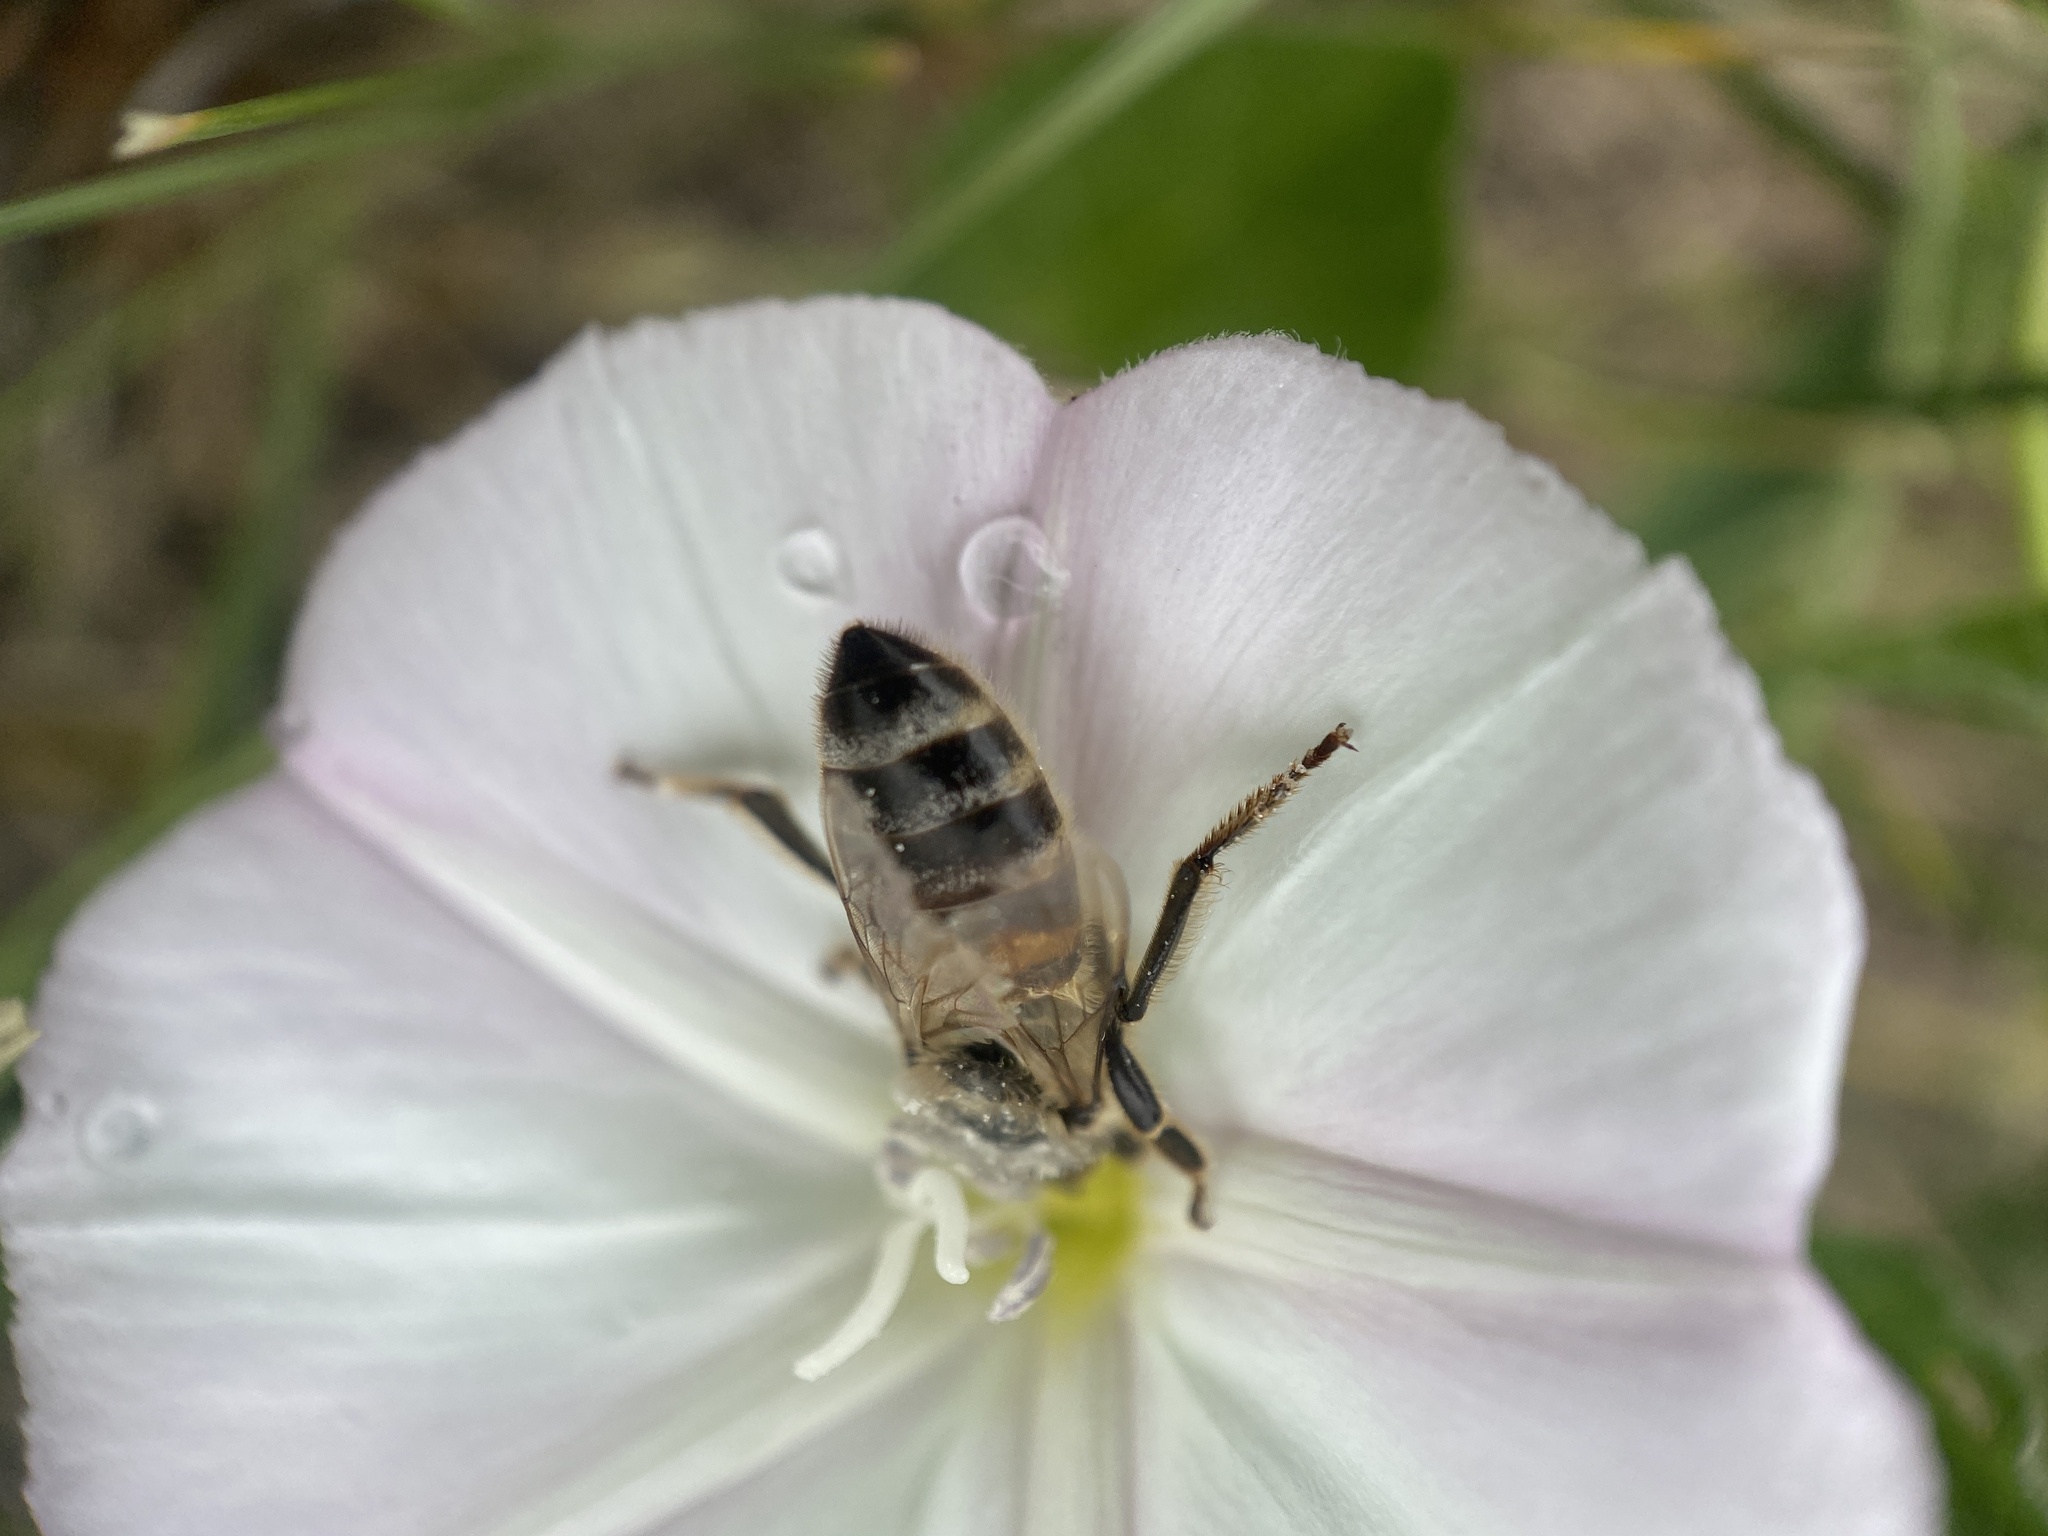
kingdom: Animalia
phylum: Arthropoda
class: Insecta
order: Hymenoptera
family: Apidae
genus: Apis
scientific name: Apis mellifera
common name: Honey bee
